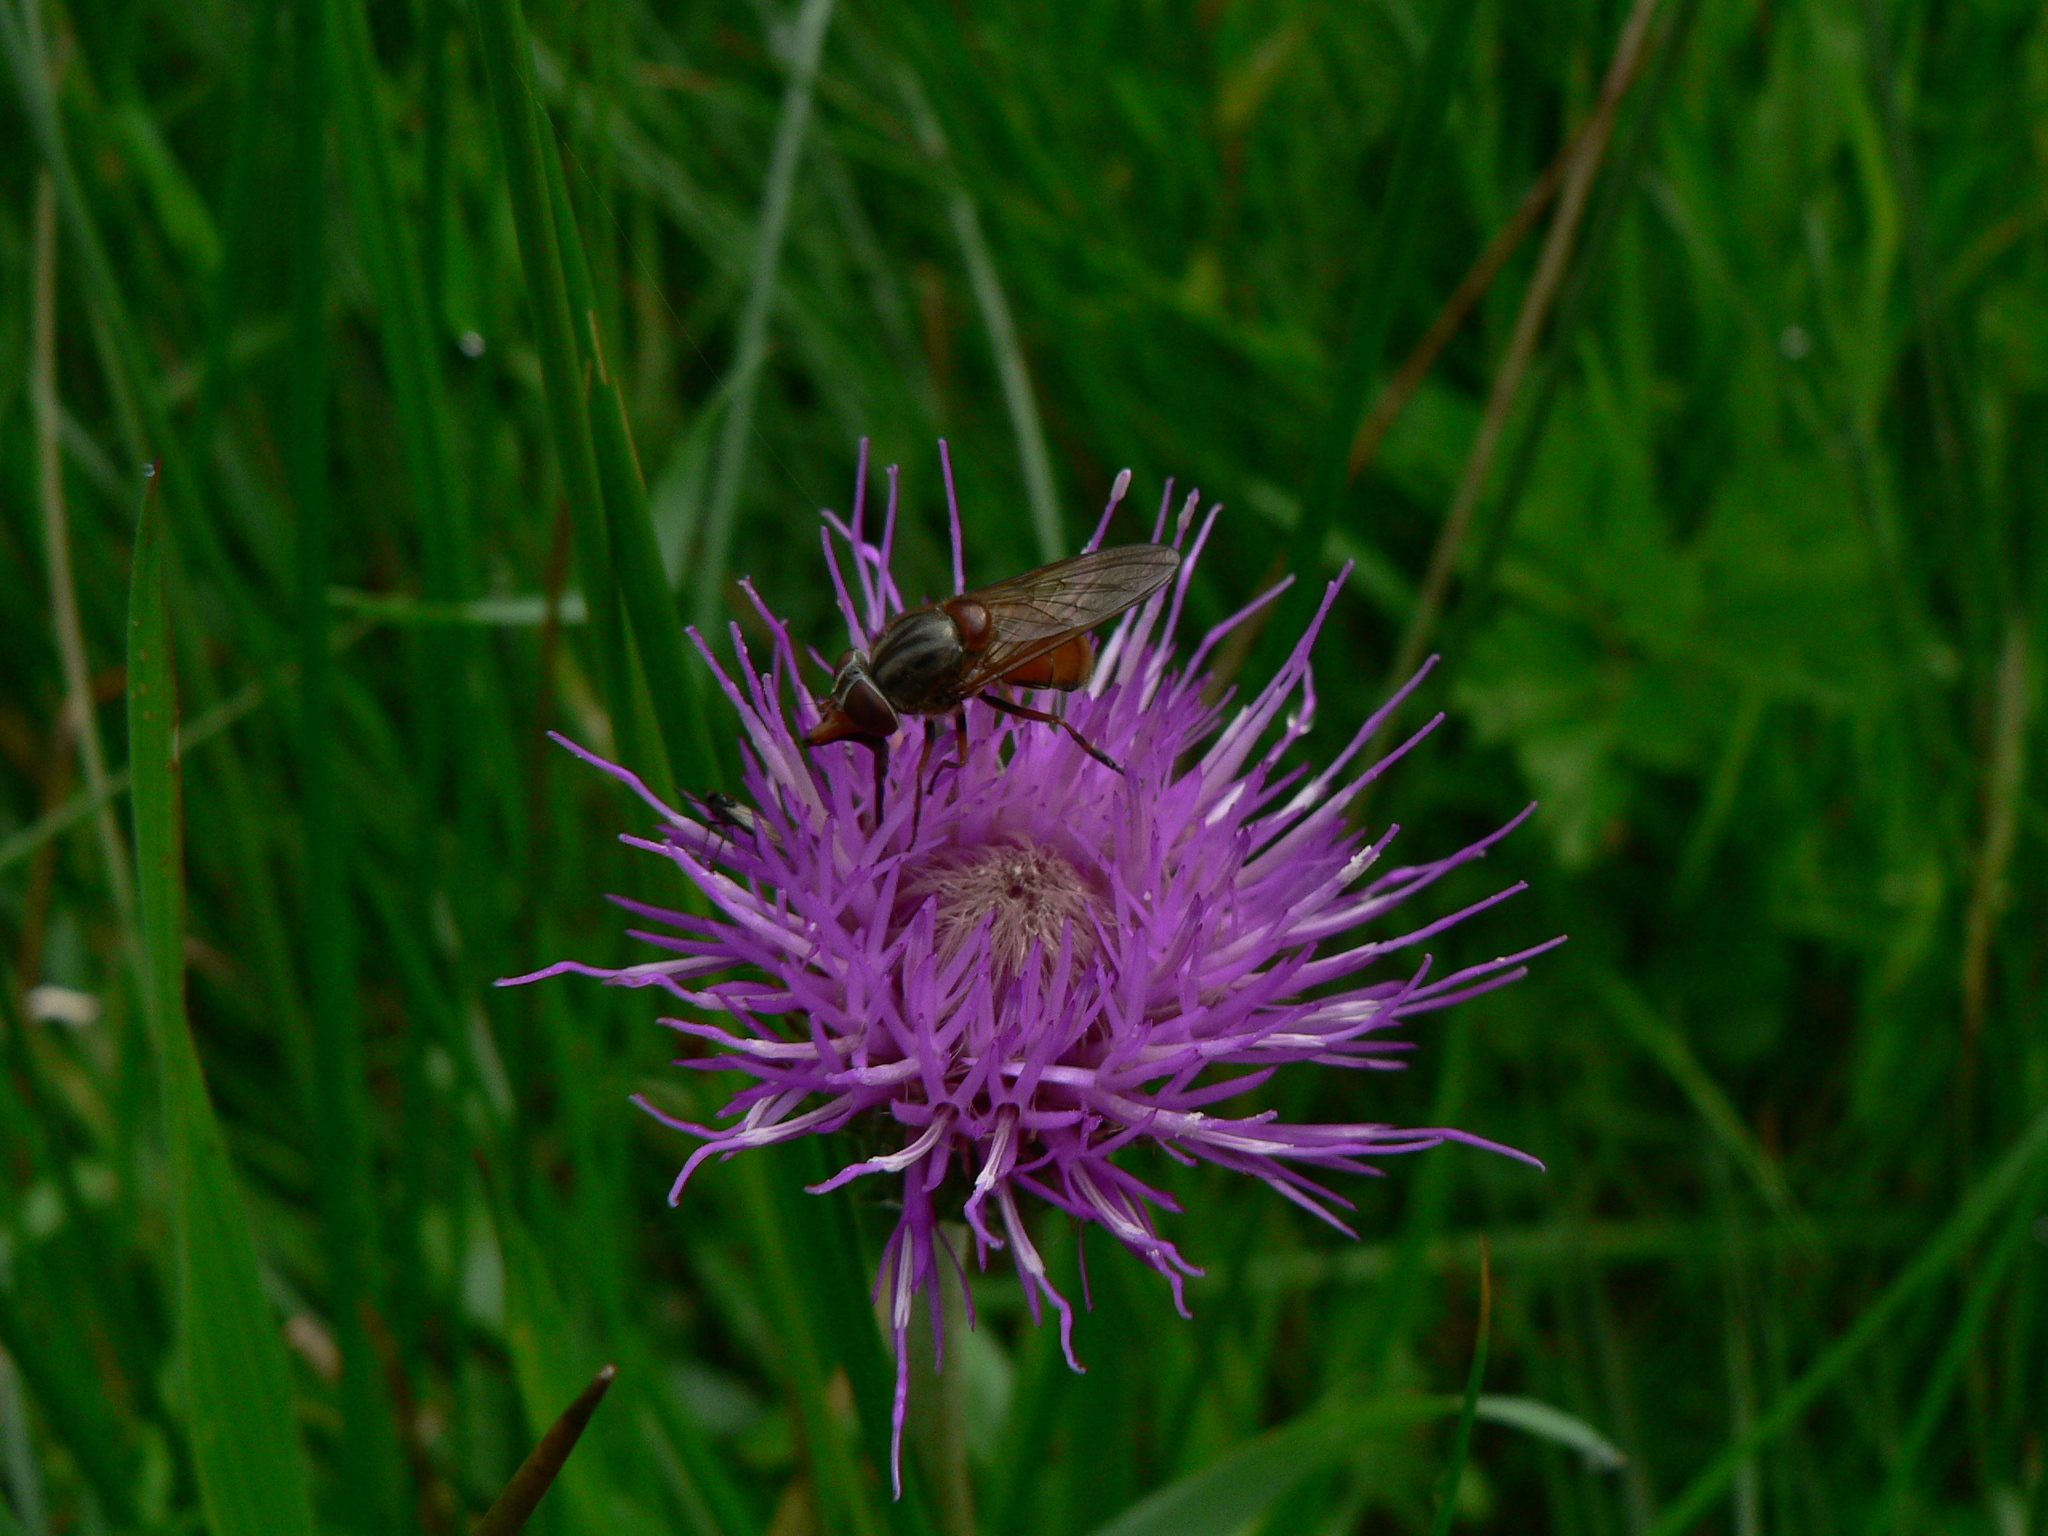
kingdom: Animalia
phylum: Arthropoda
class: Insecta
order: Diptera
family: Syrphidae
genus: Rhingia
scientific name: Rhingia campestris
